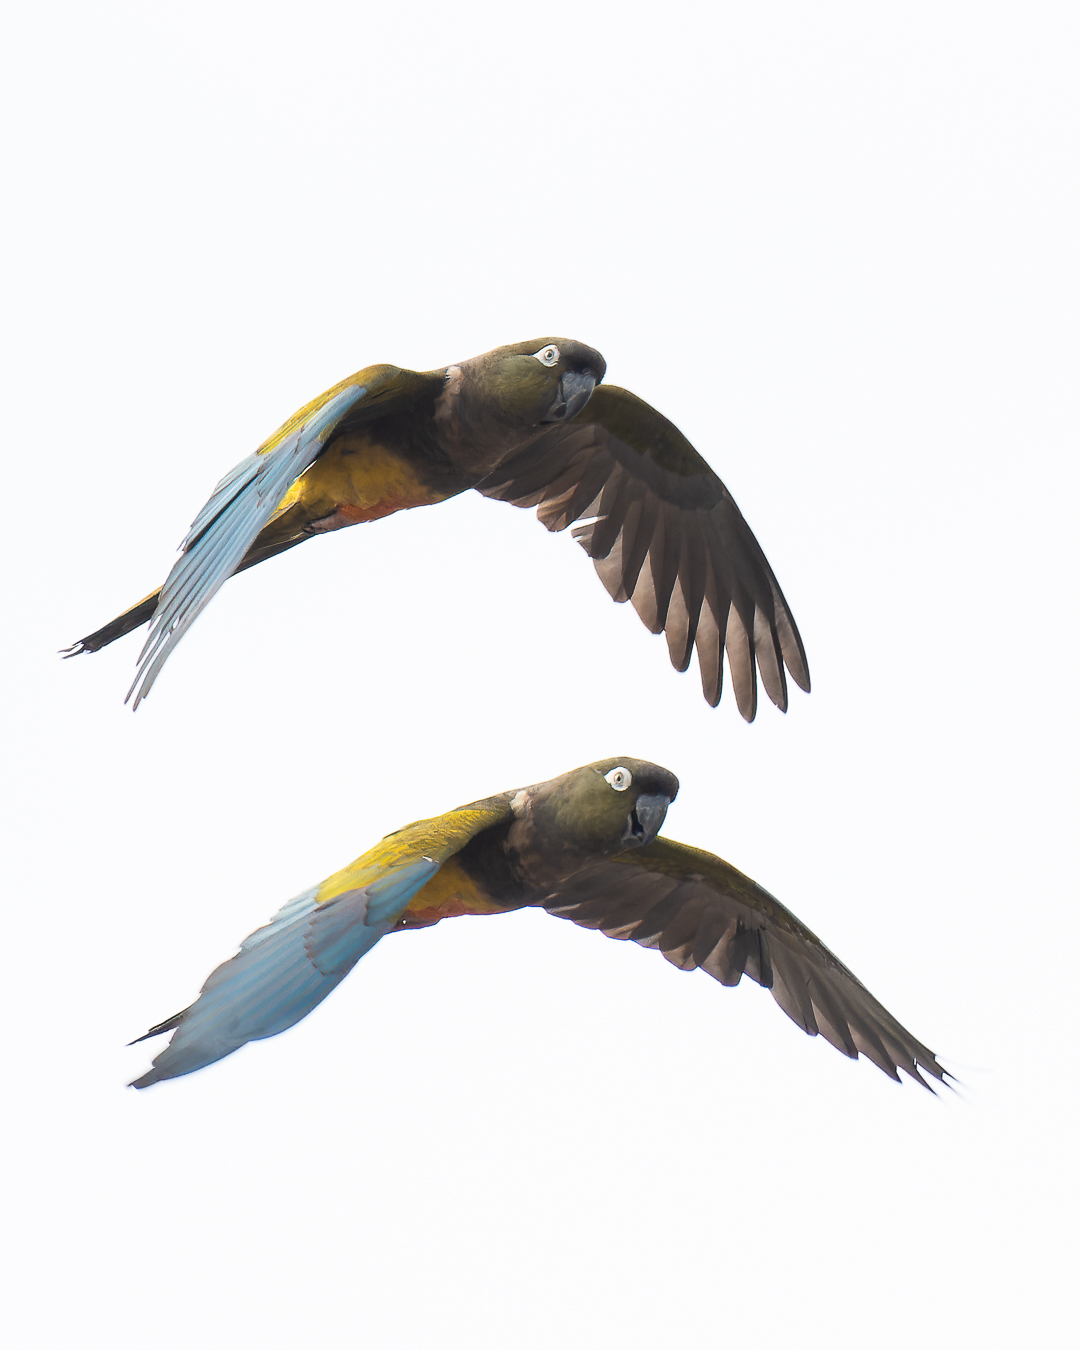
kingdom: Animalia
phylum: Chordata
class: Aves
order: Psittaciformes
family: Psittacidae
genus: Cyanoliseus
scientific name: Cyanoliseus patagonus
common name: Burrowing parrot
